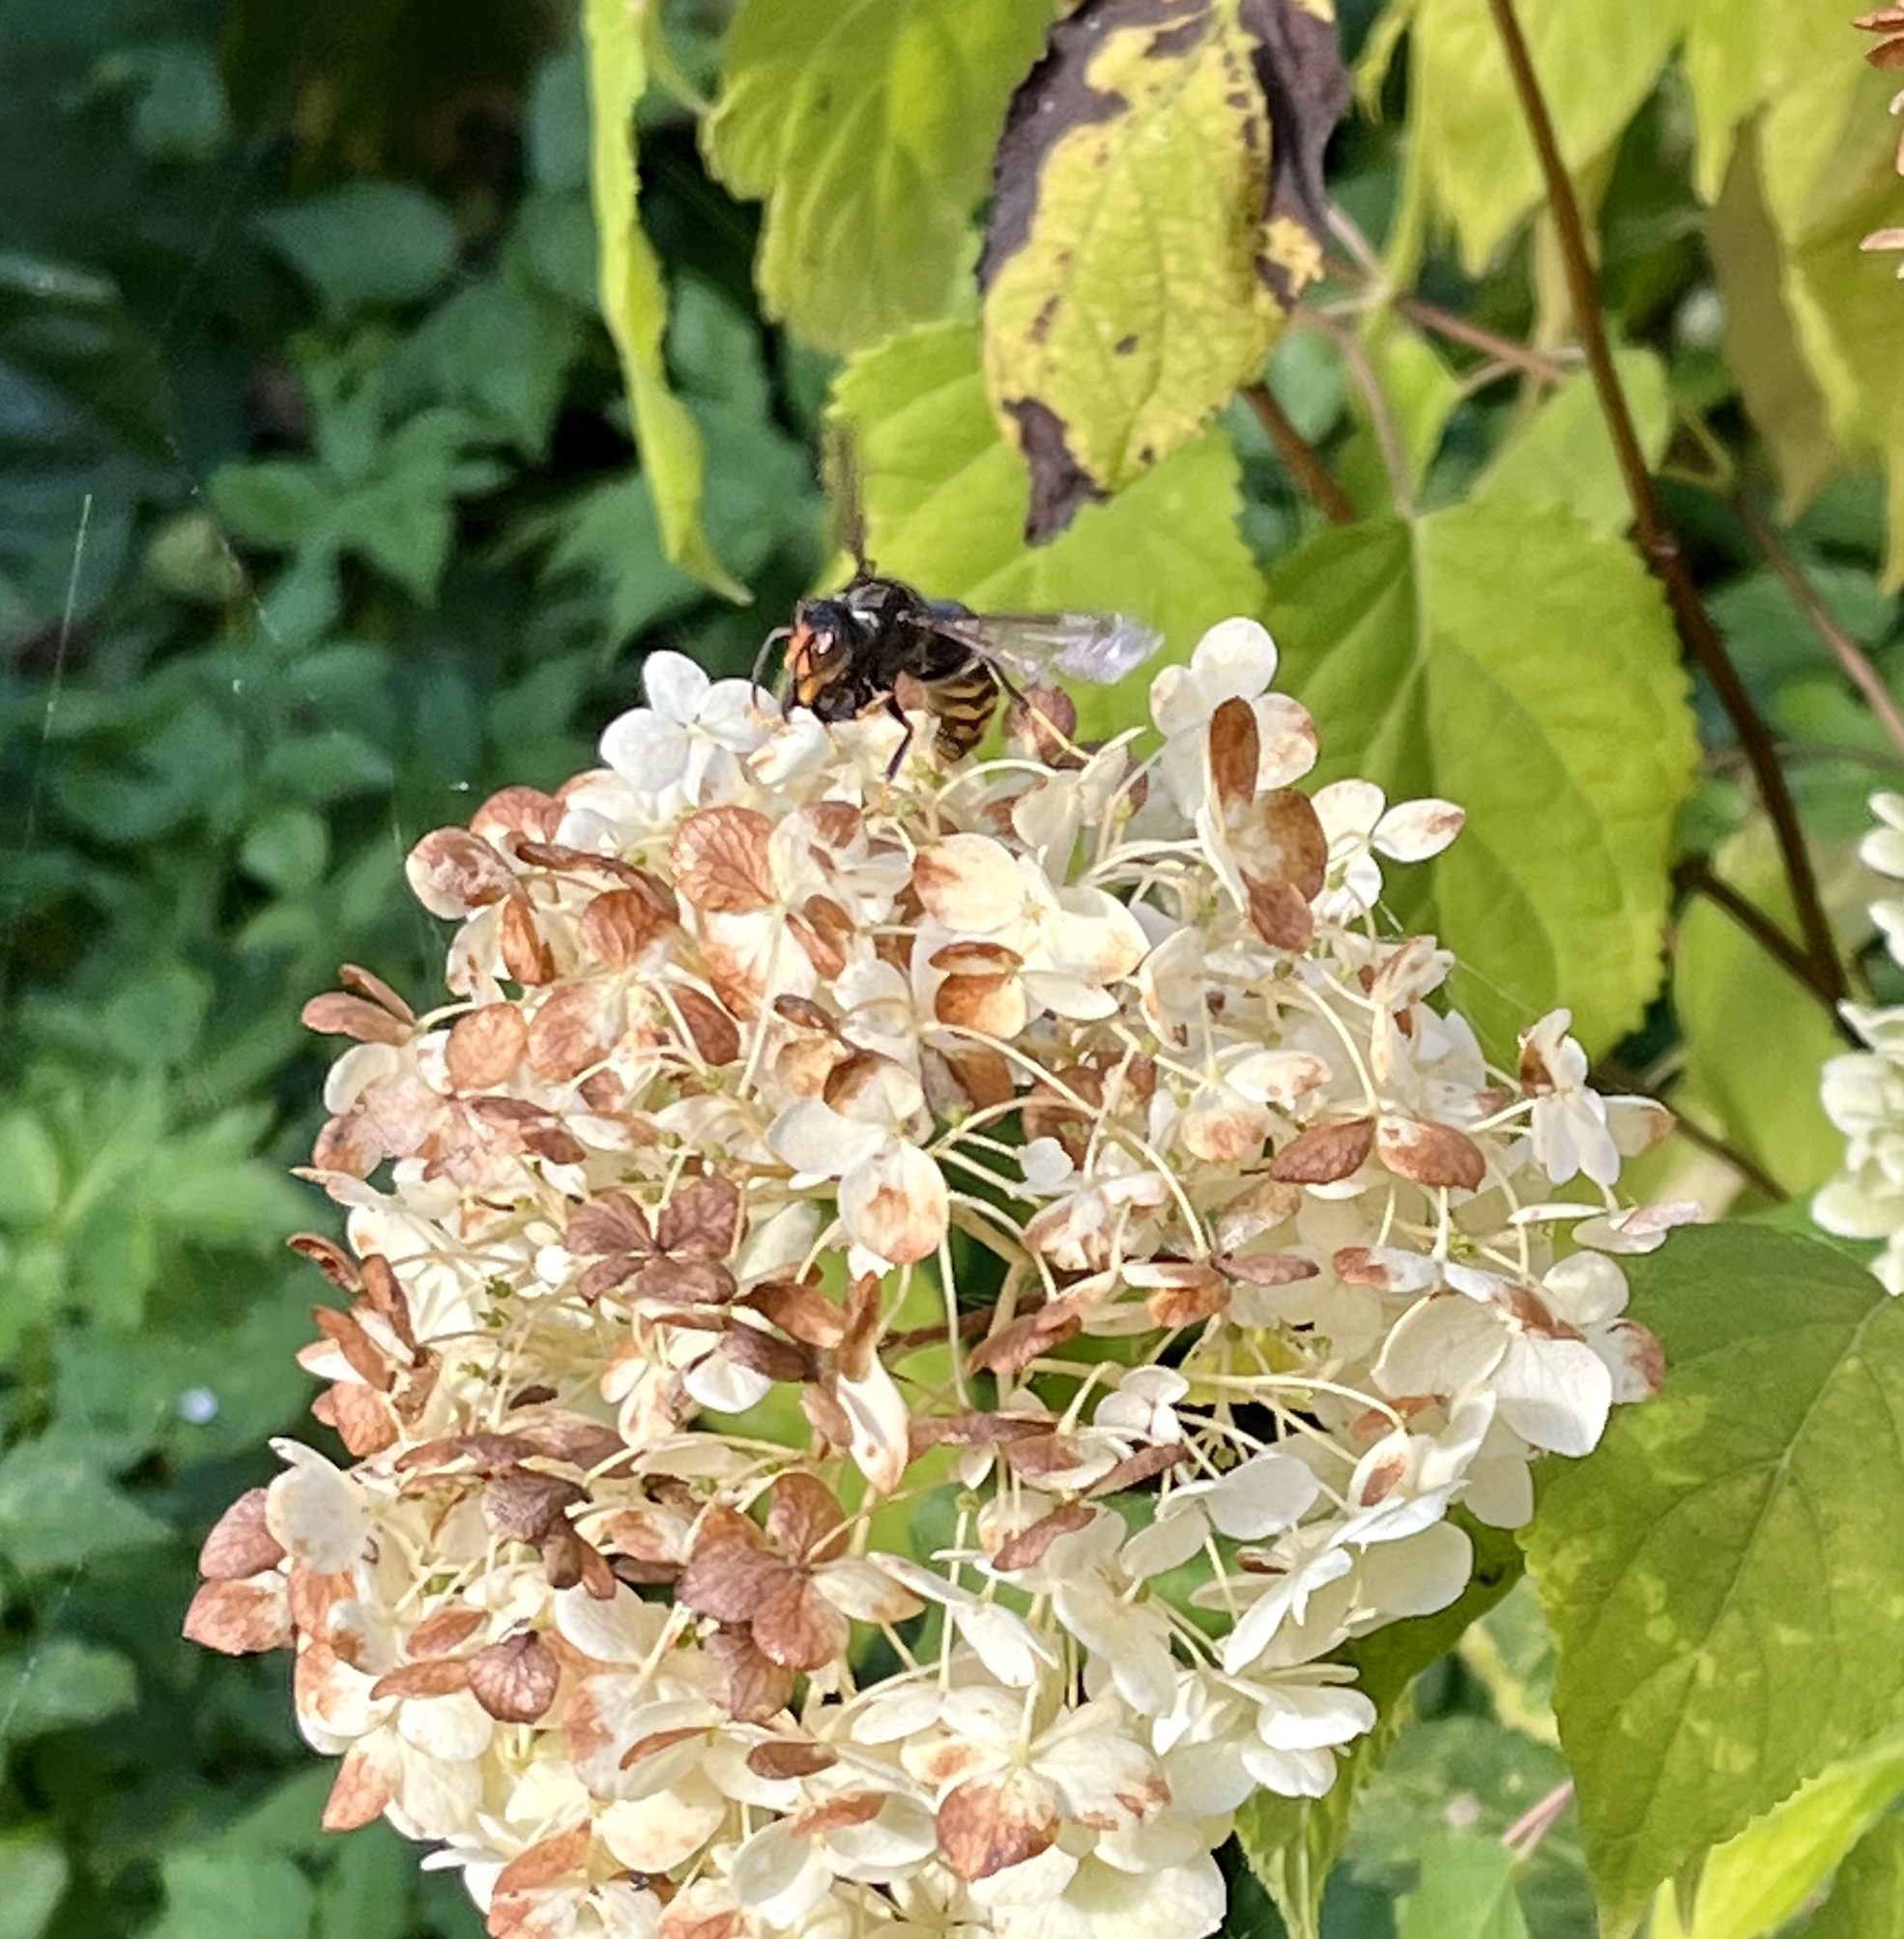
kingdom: Animalia
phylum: Arthropoda
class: Insecta
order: Hymenoptera
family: Vespidae
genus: Vespa
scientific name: Vespa velutina
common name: Asian hornet
